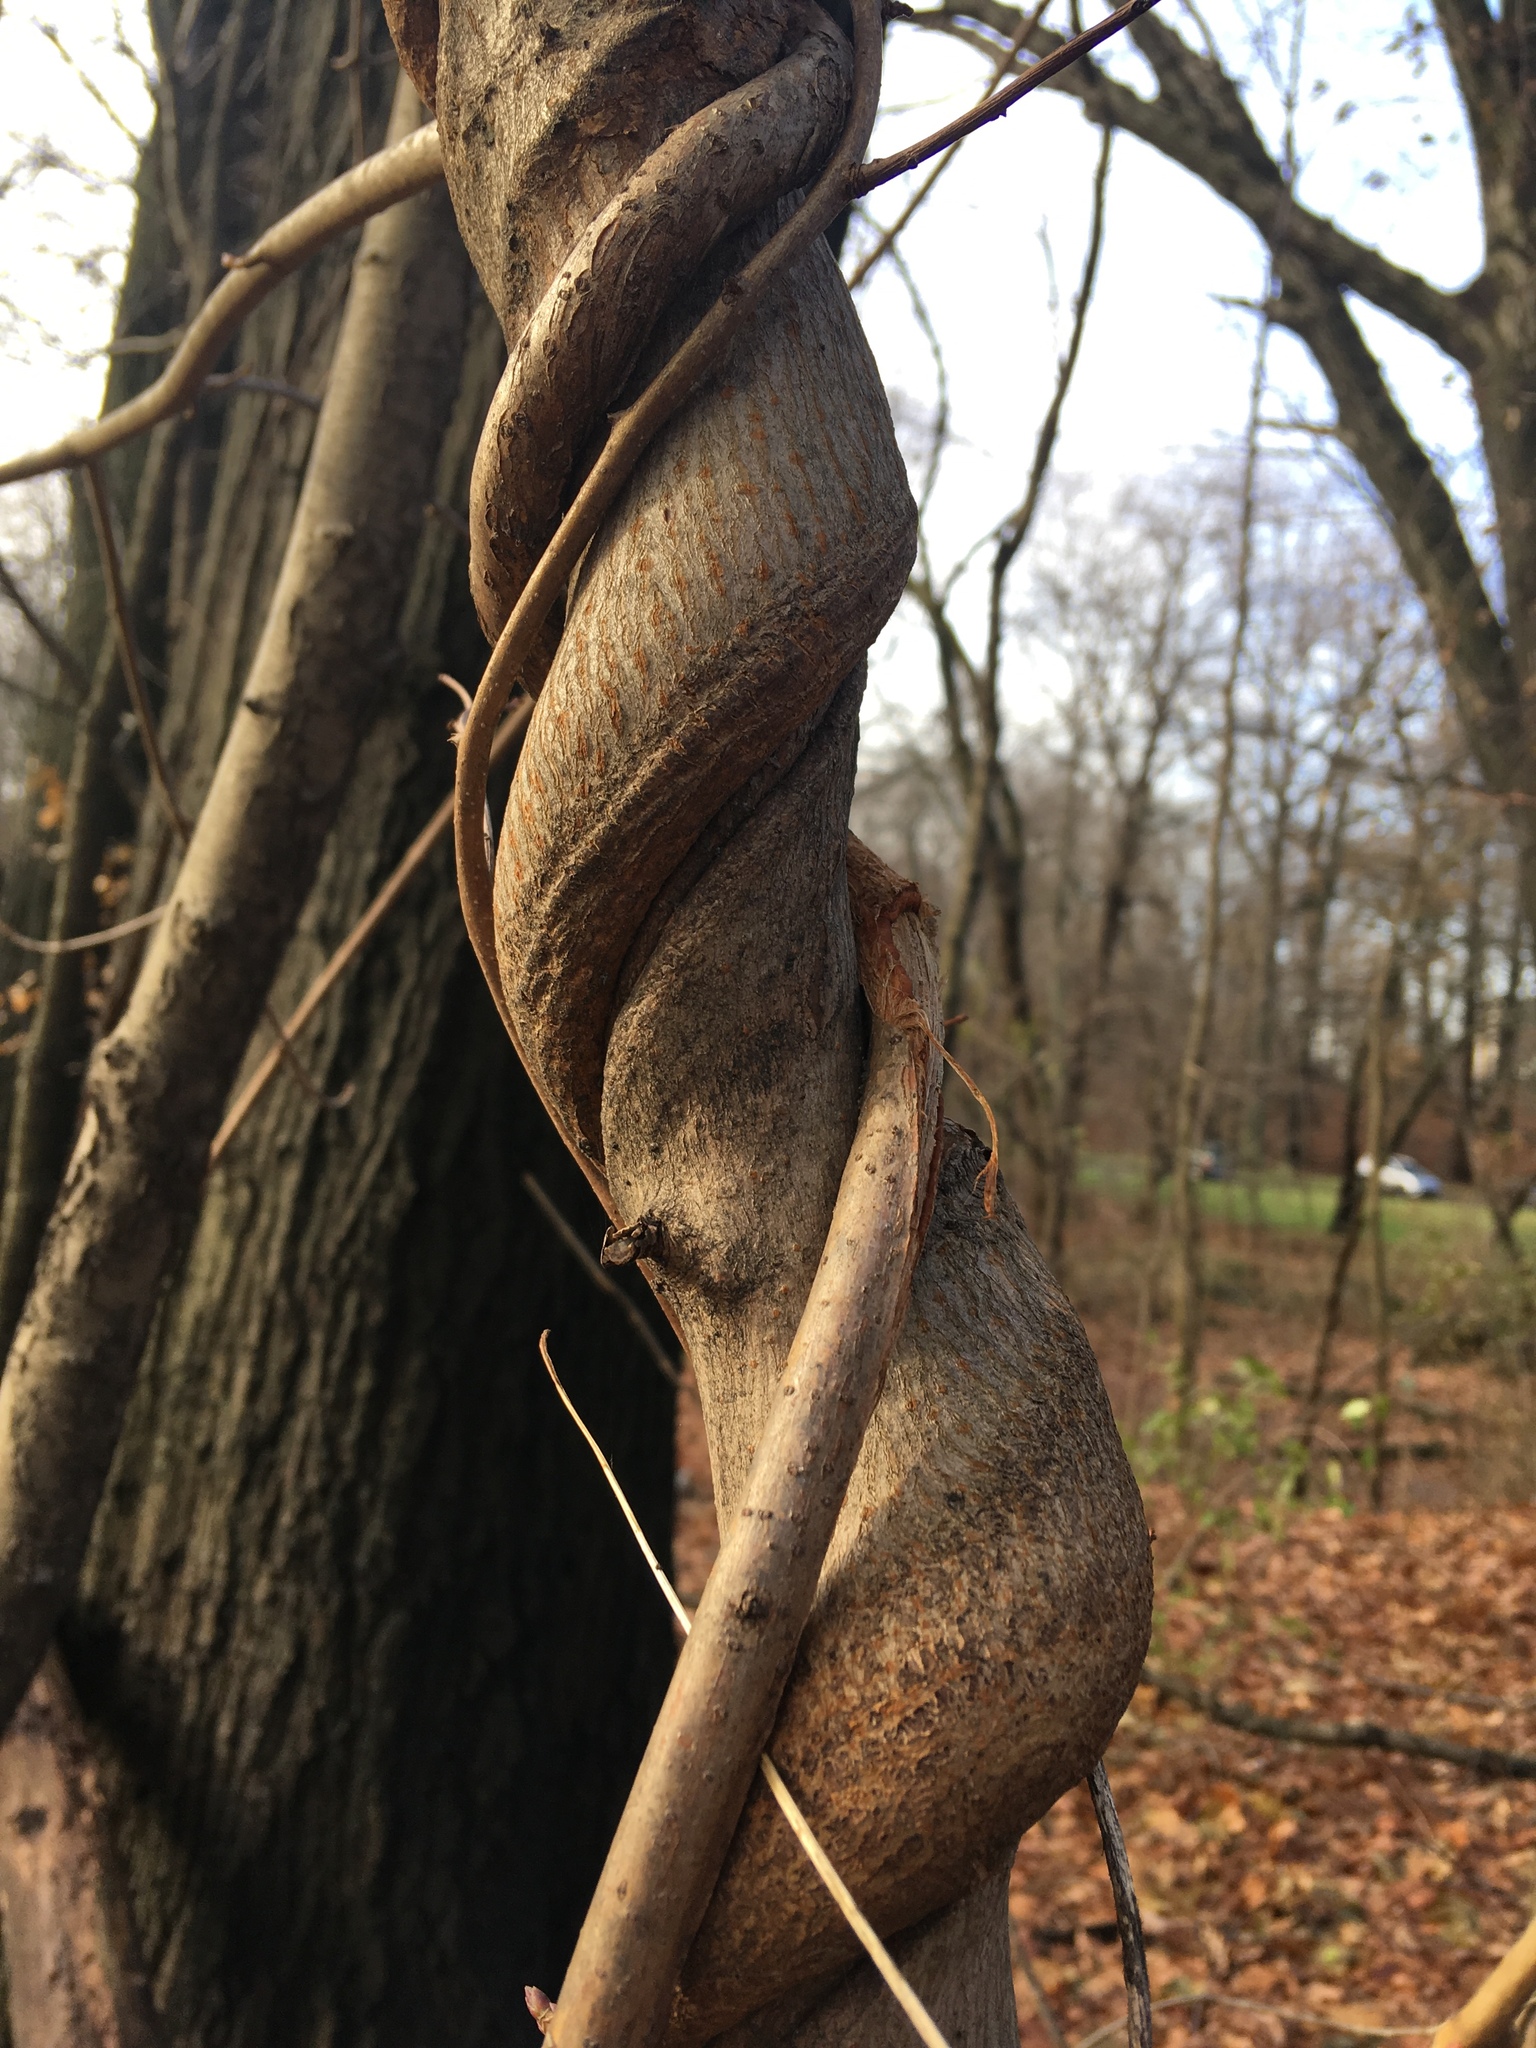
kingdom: Plantae
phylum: Tracheophyta
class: Magnoliopsida
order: Celastrales
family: Celastraceae
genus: Celastrus
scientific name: Celastrus orbiculatus
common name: Oriental bittersweet
